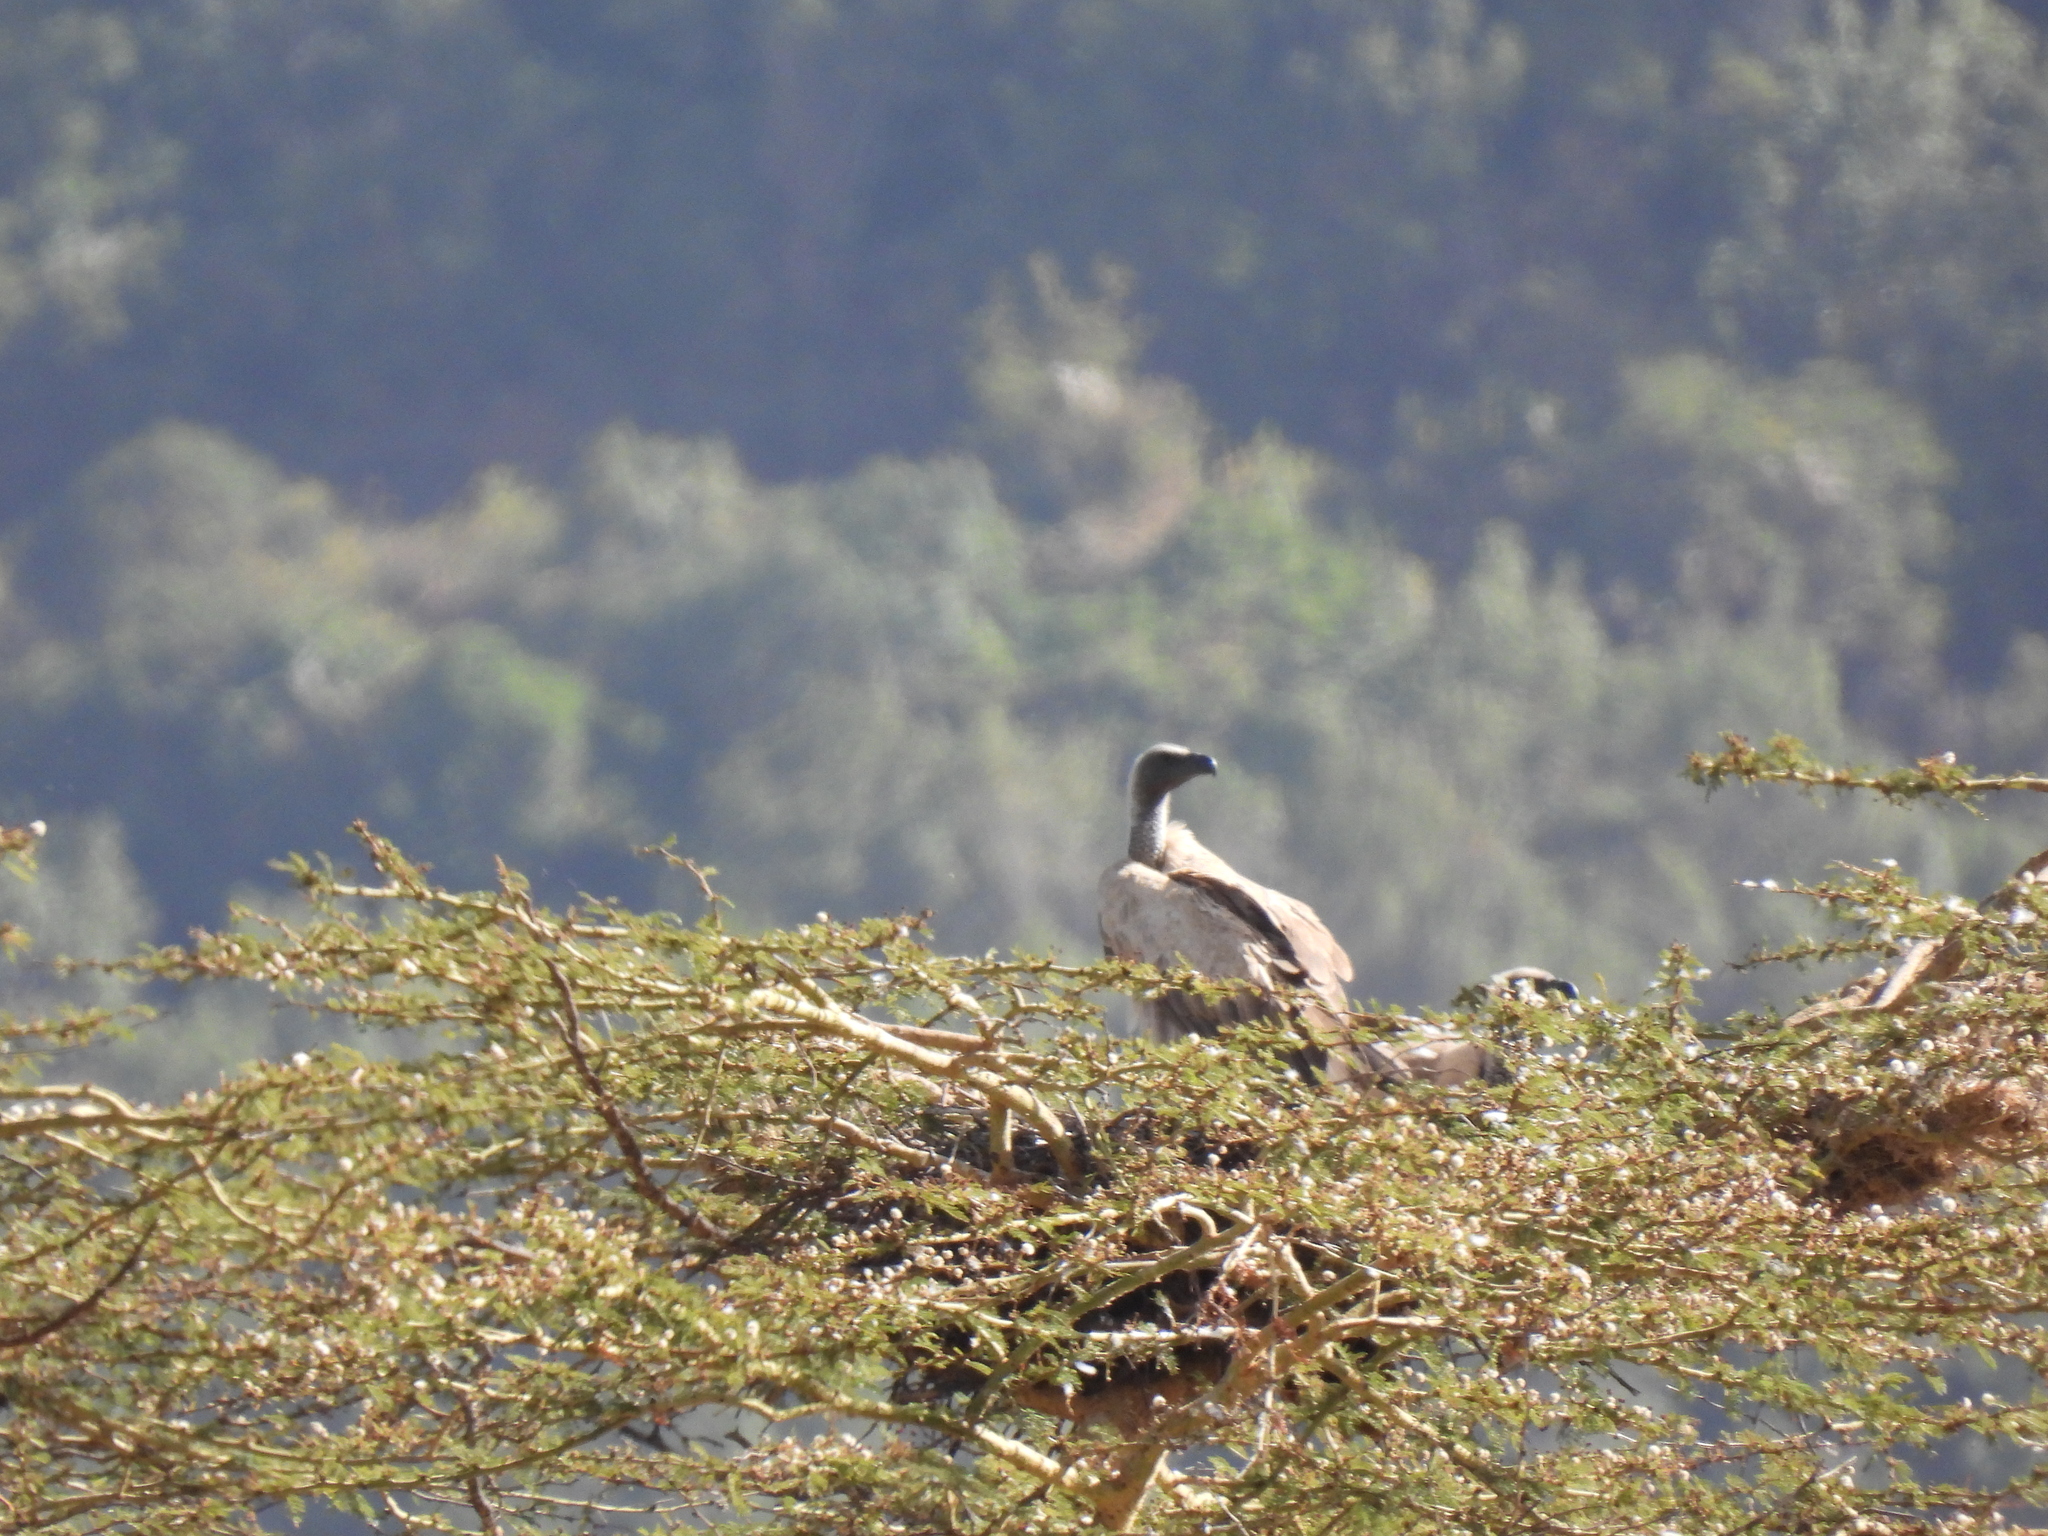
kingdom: Animalia
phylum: Chordata
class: Aves
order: Accipitriformes
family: Accipitridae
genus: Gyps
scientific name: Gyps africanus
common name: White-backed vulture
